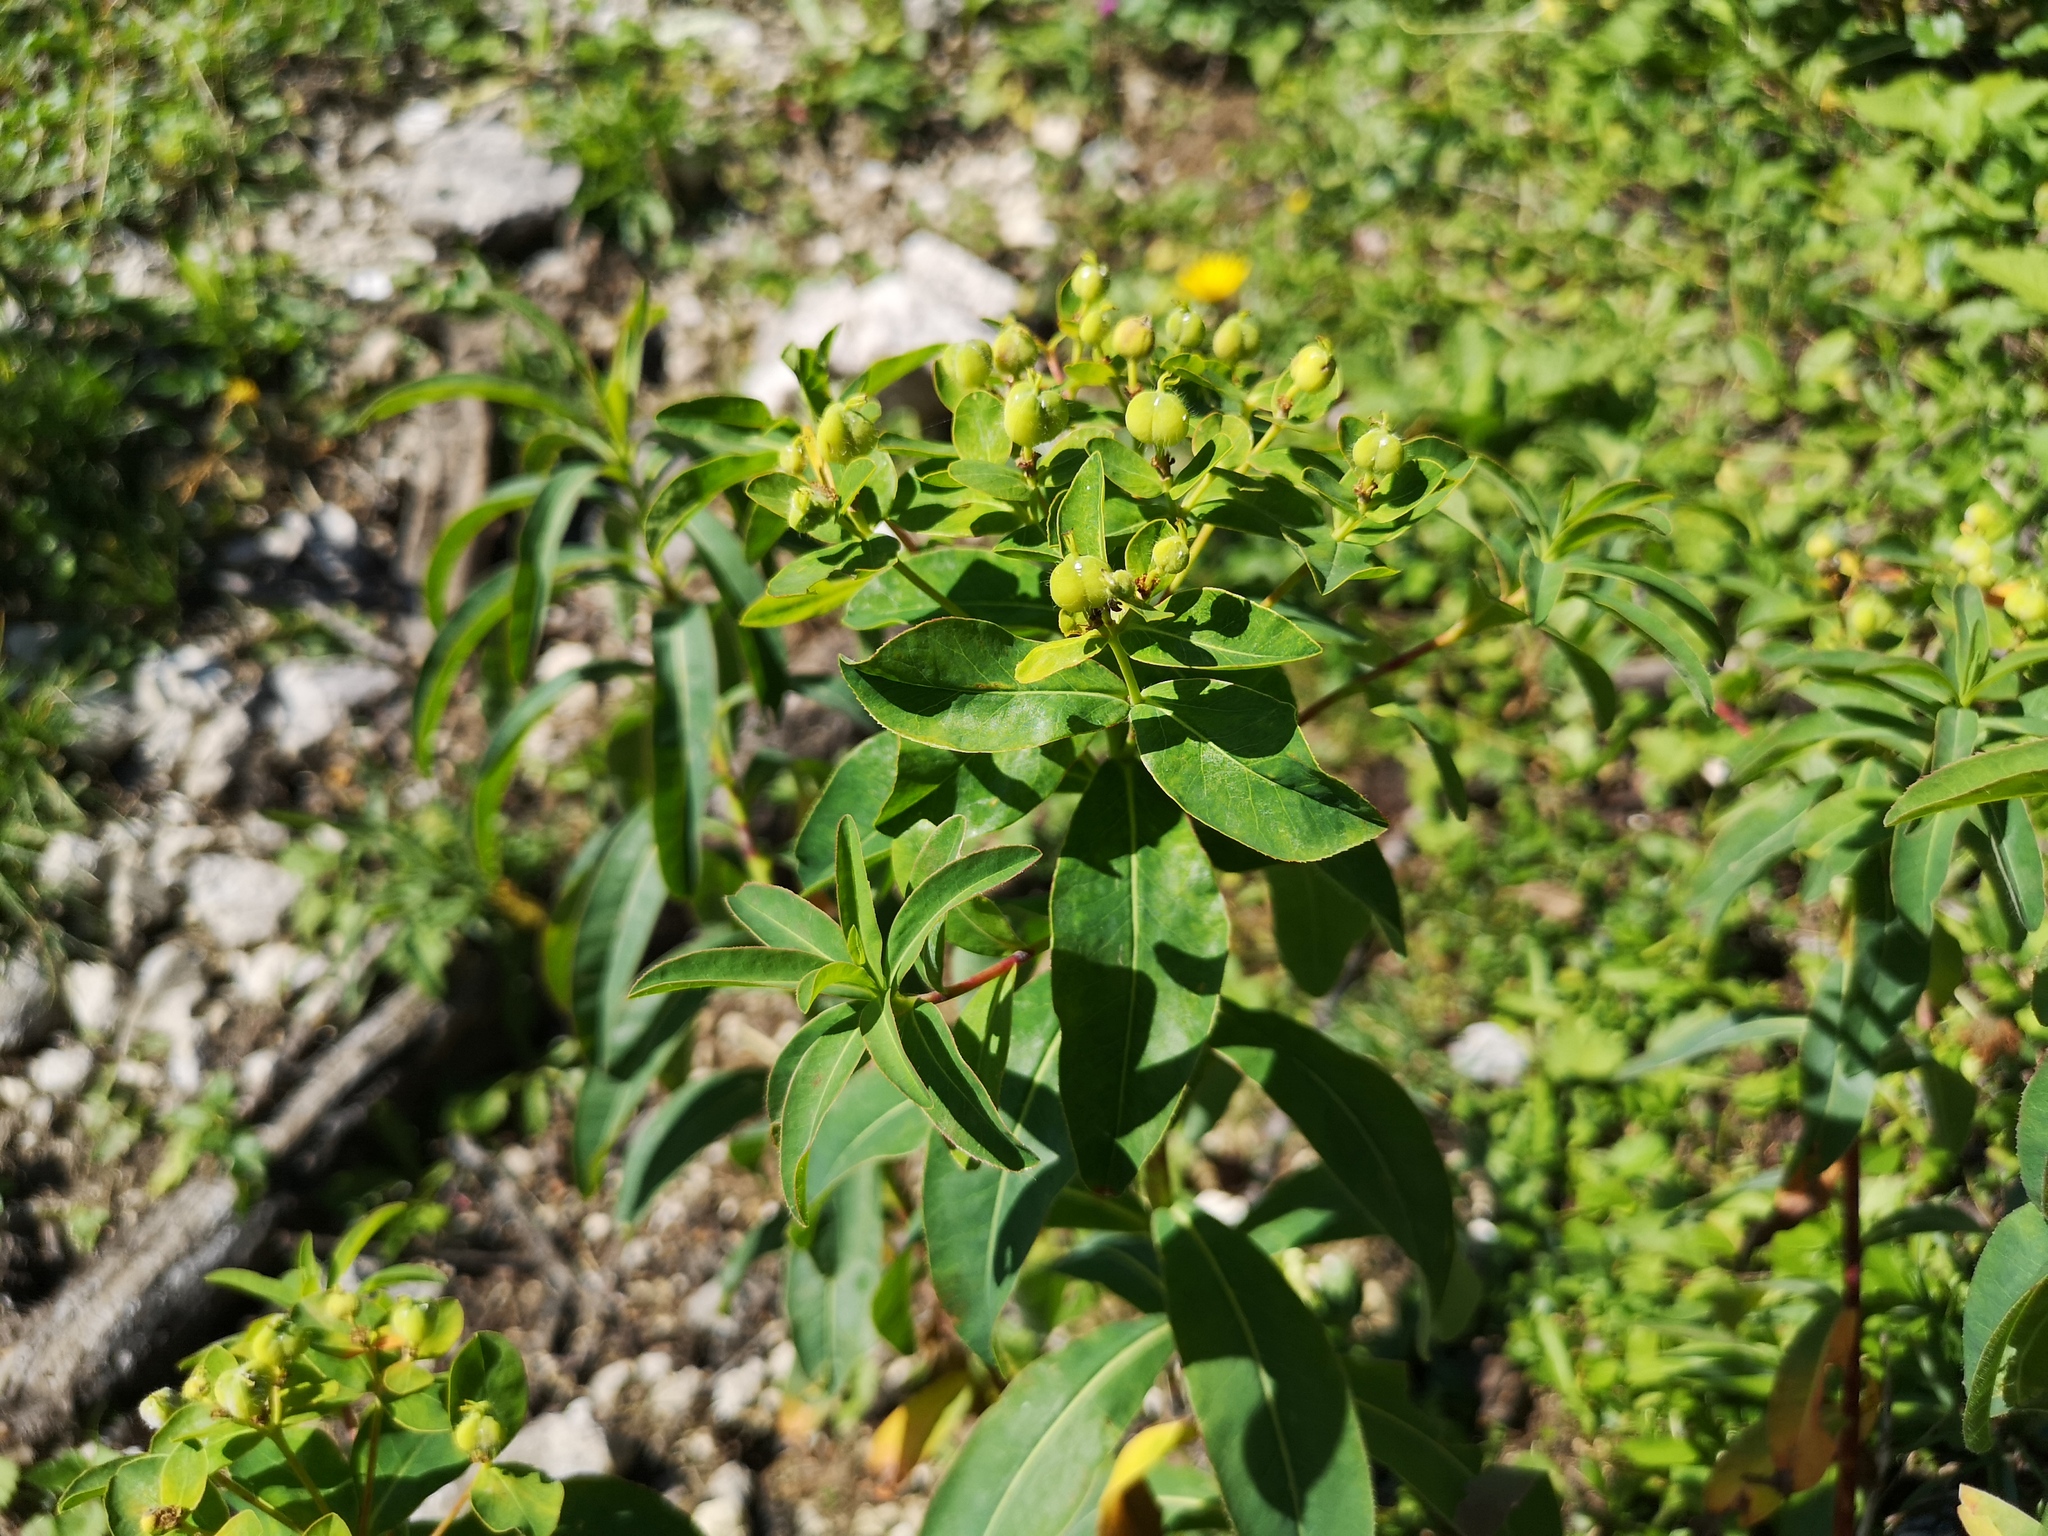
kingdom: Plantae
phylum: Tracheophyta
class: Magnoliopsida
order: Malpighiales
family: Euphorbiaceae
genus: Euphorbia
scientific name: Euphorbia austriaca
